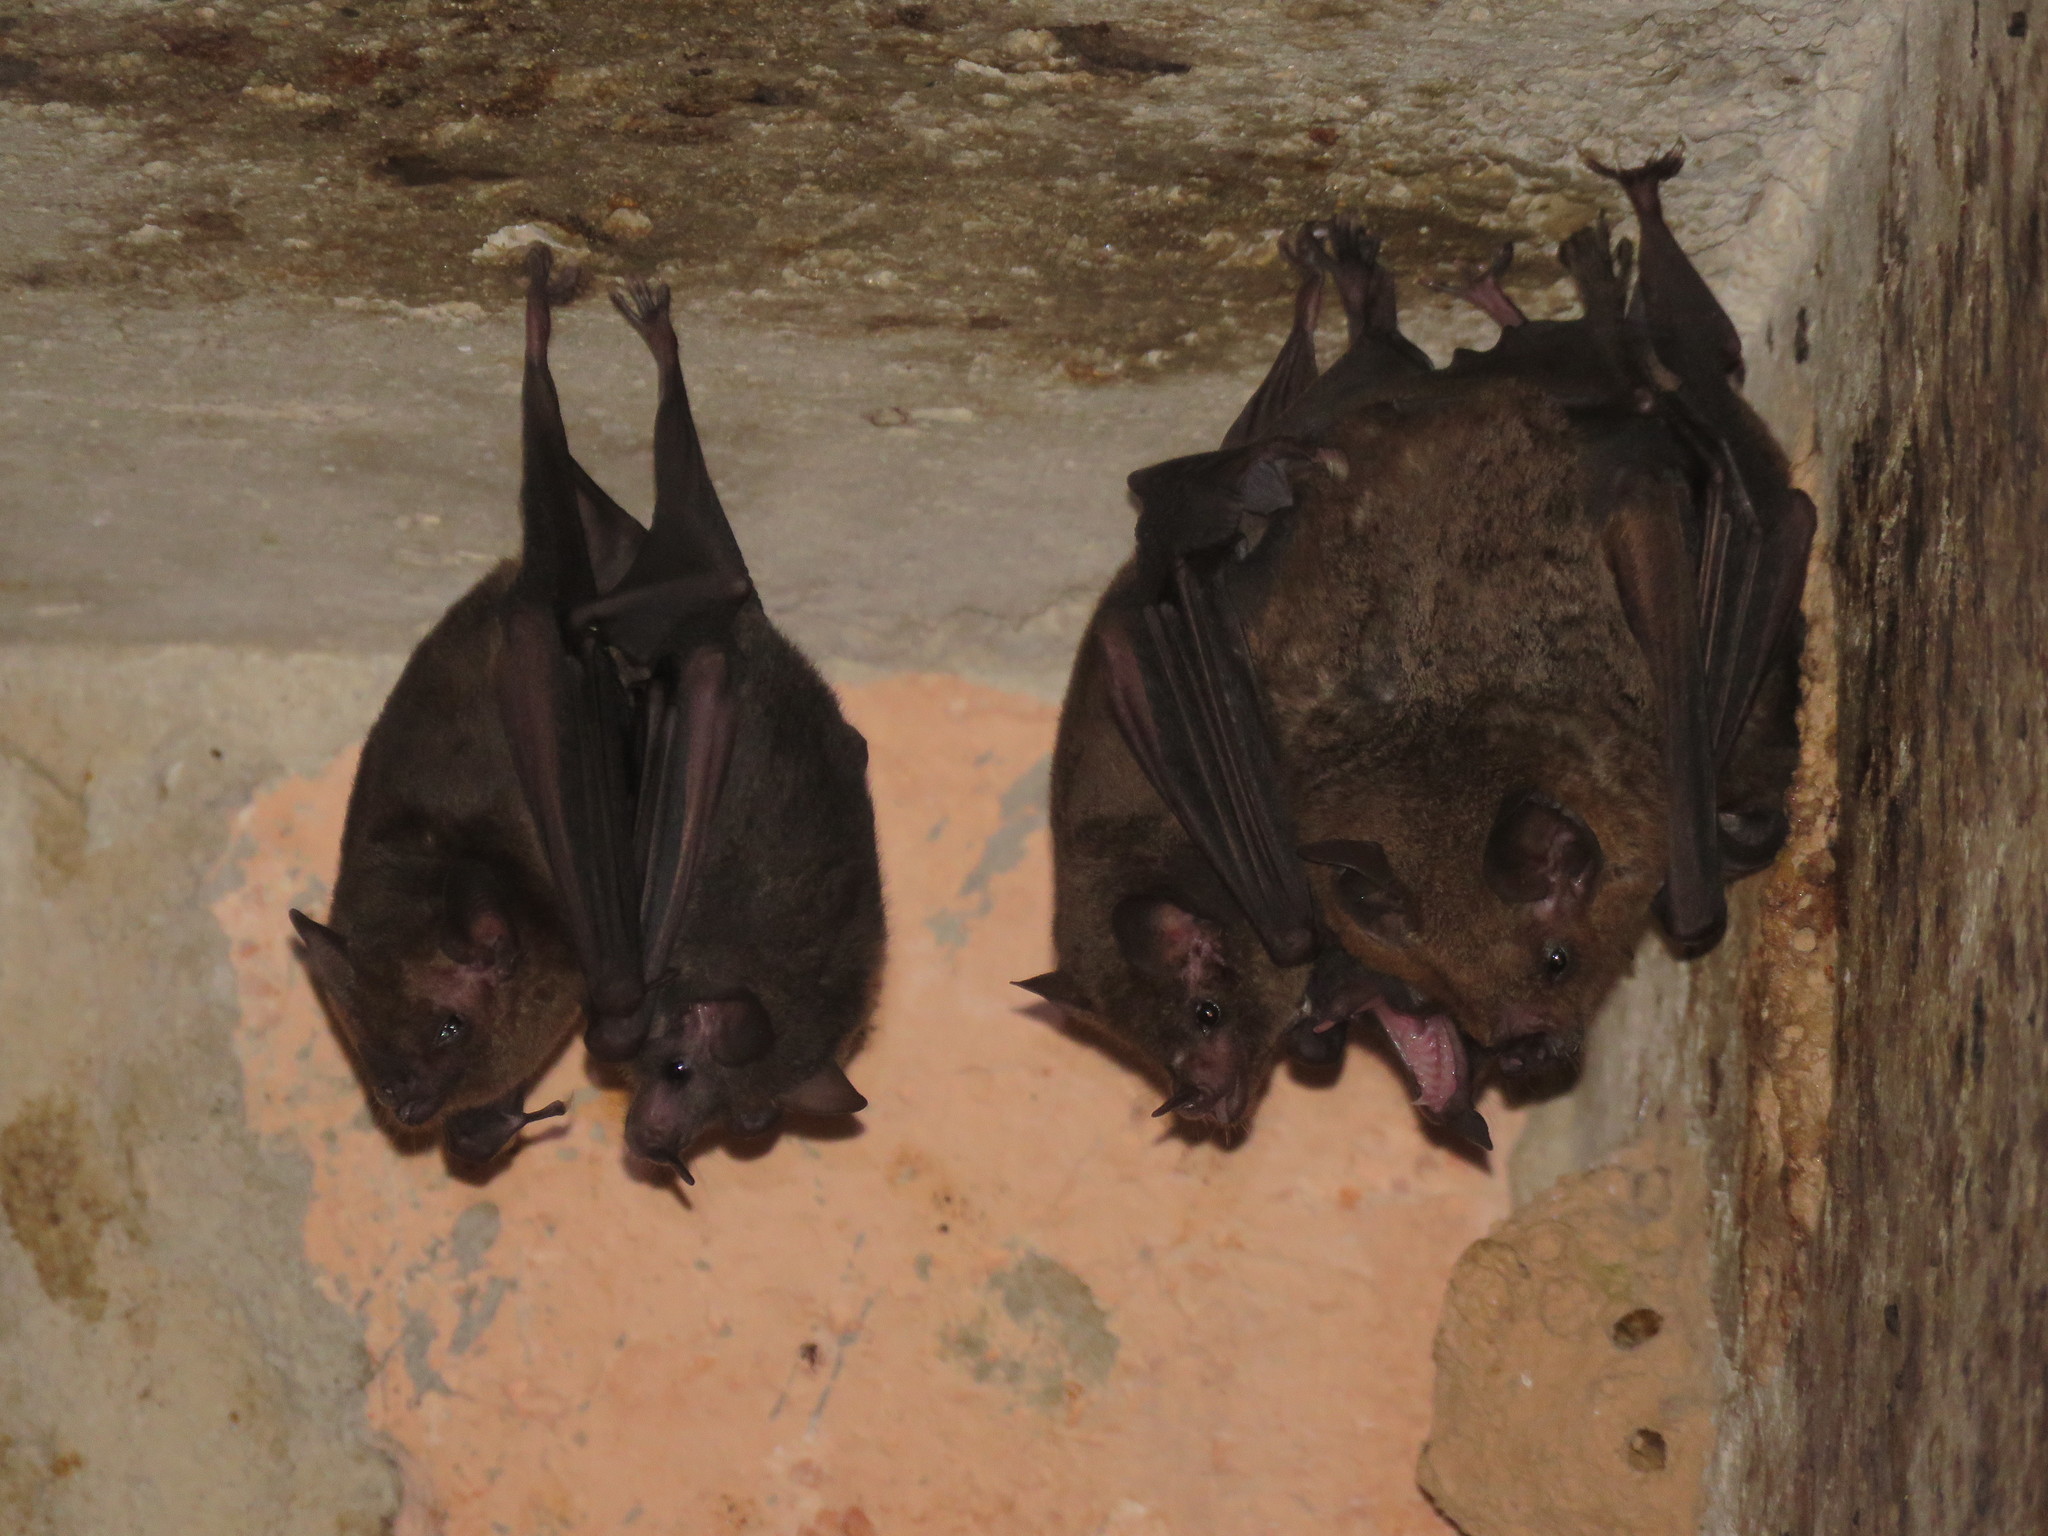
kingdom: Animalia
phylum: Chordata
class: Mammalia
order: Chiroptera
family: Phyllostomidae
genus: Glossophaga
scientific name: Glossophaga soricina
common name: Pallas's long-tongued bat
